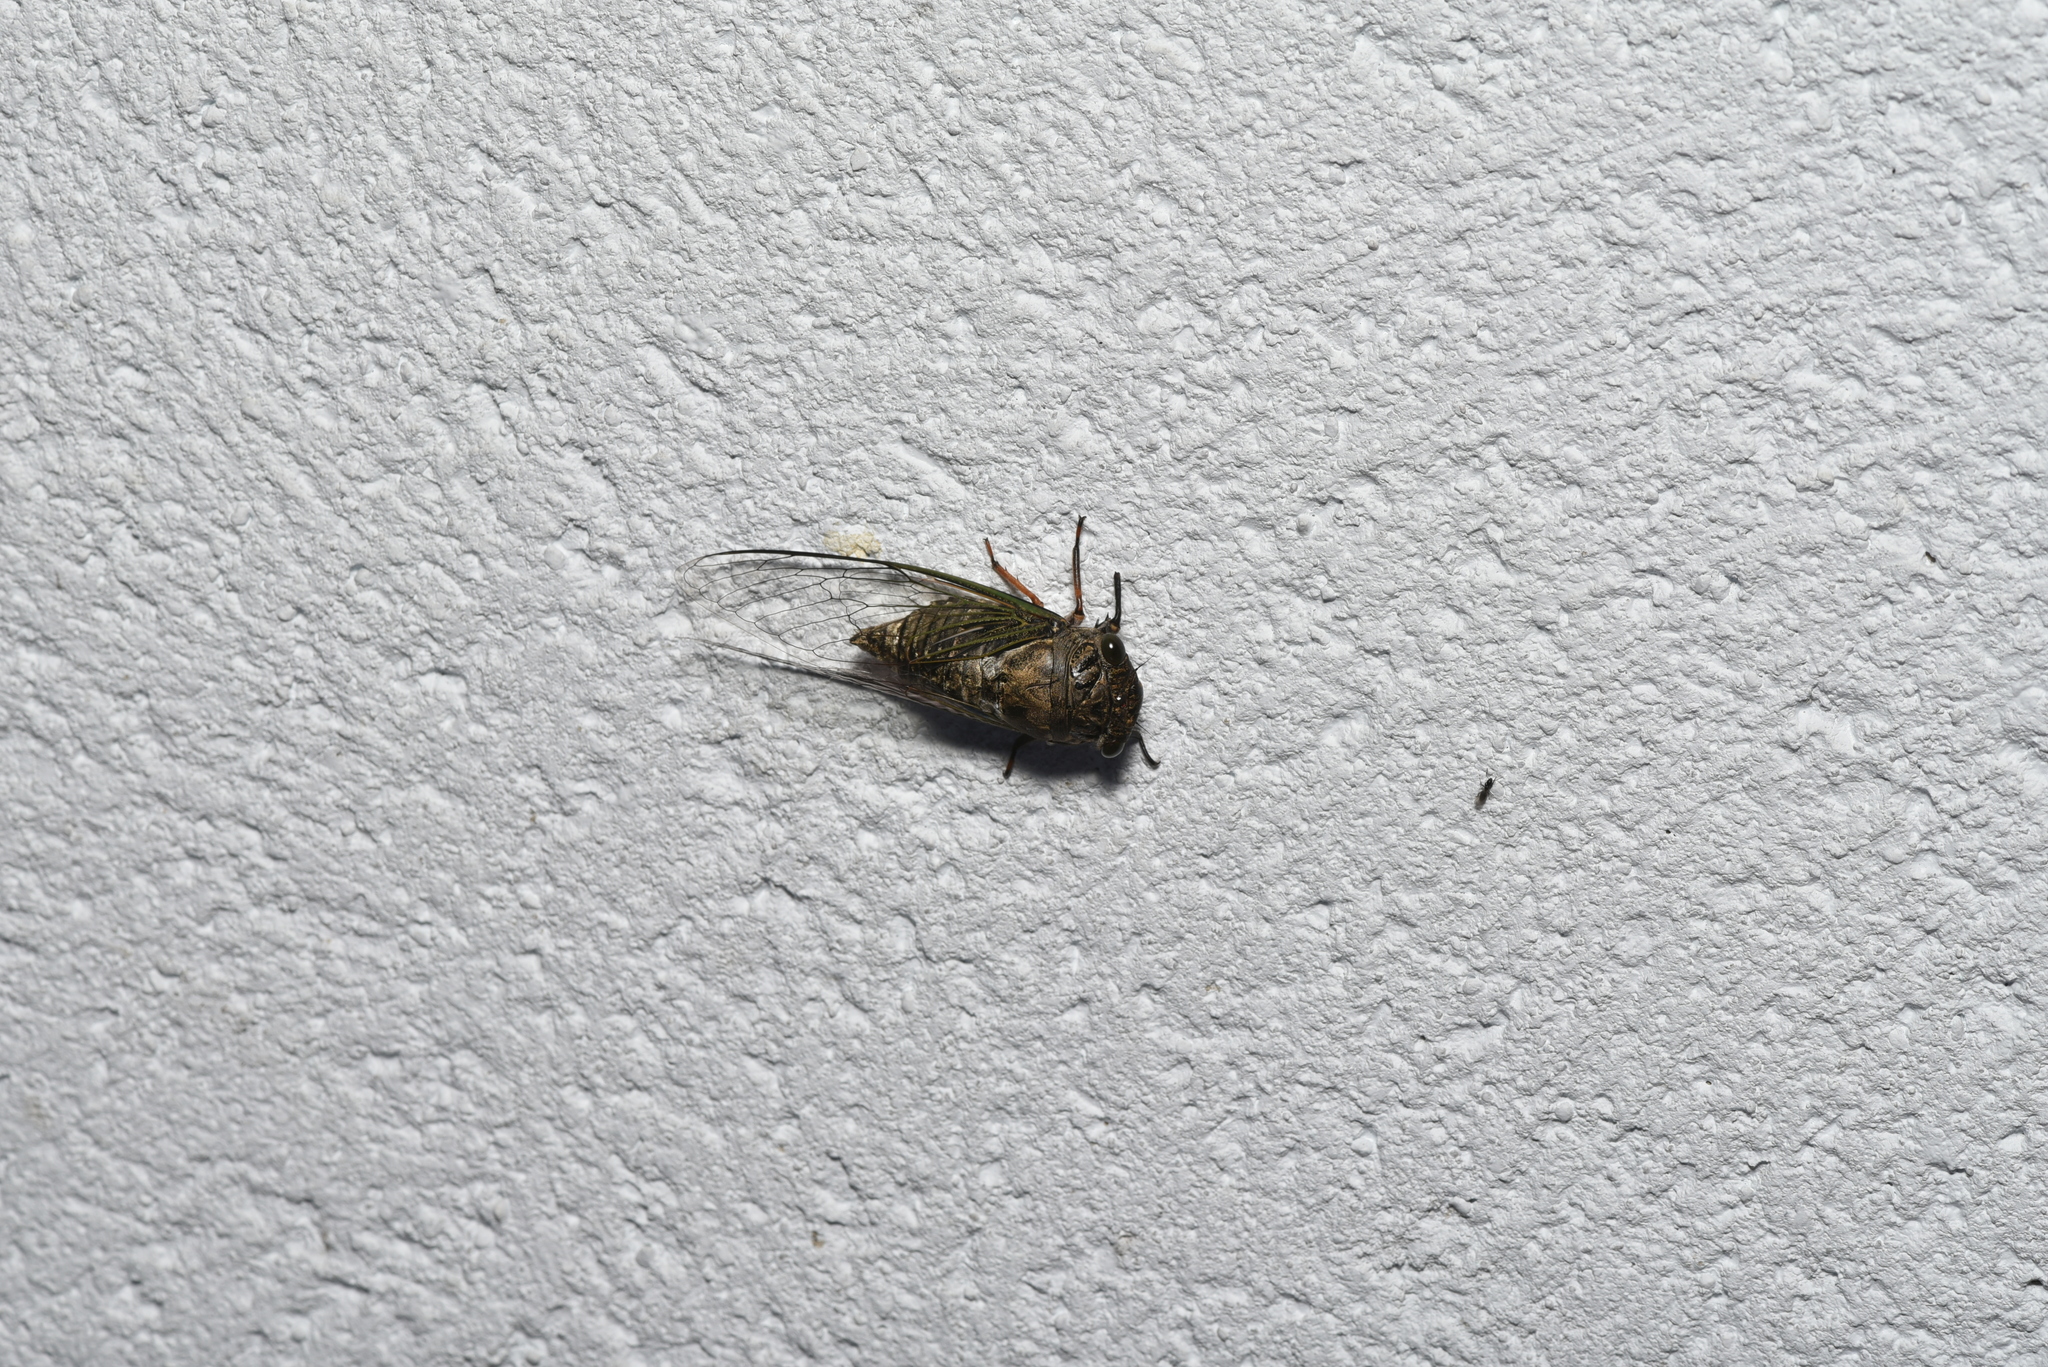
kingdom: Animalia
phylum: Arthropoda
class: Insecta
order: Hemiptera
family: Cicadidae
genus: Cryptotympana
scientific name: Cryptotympana takasagona
